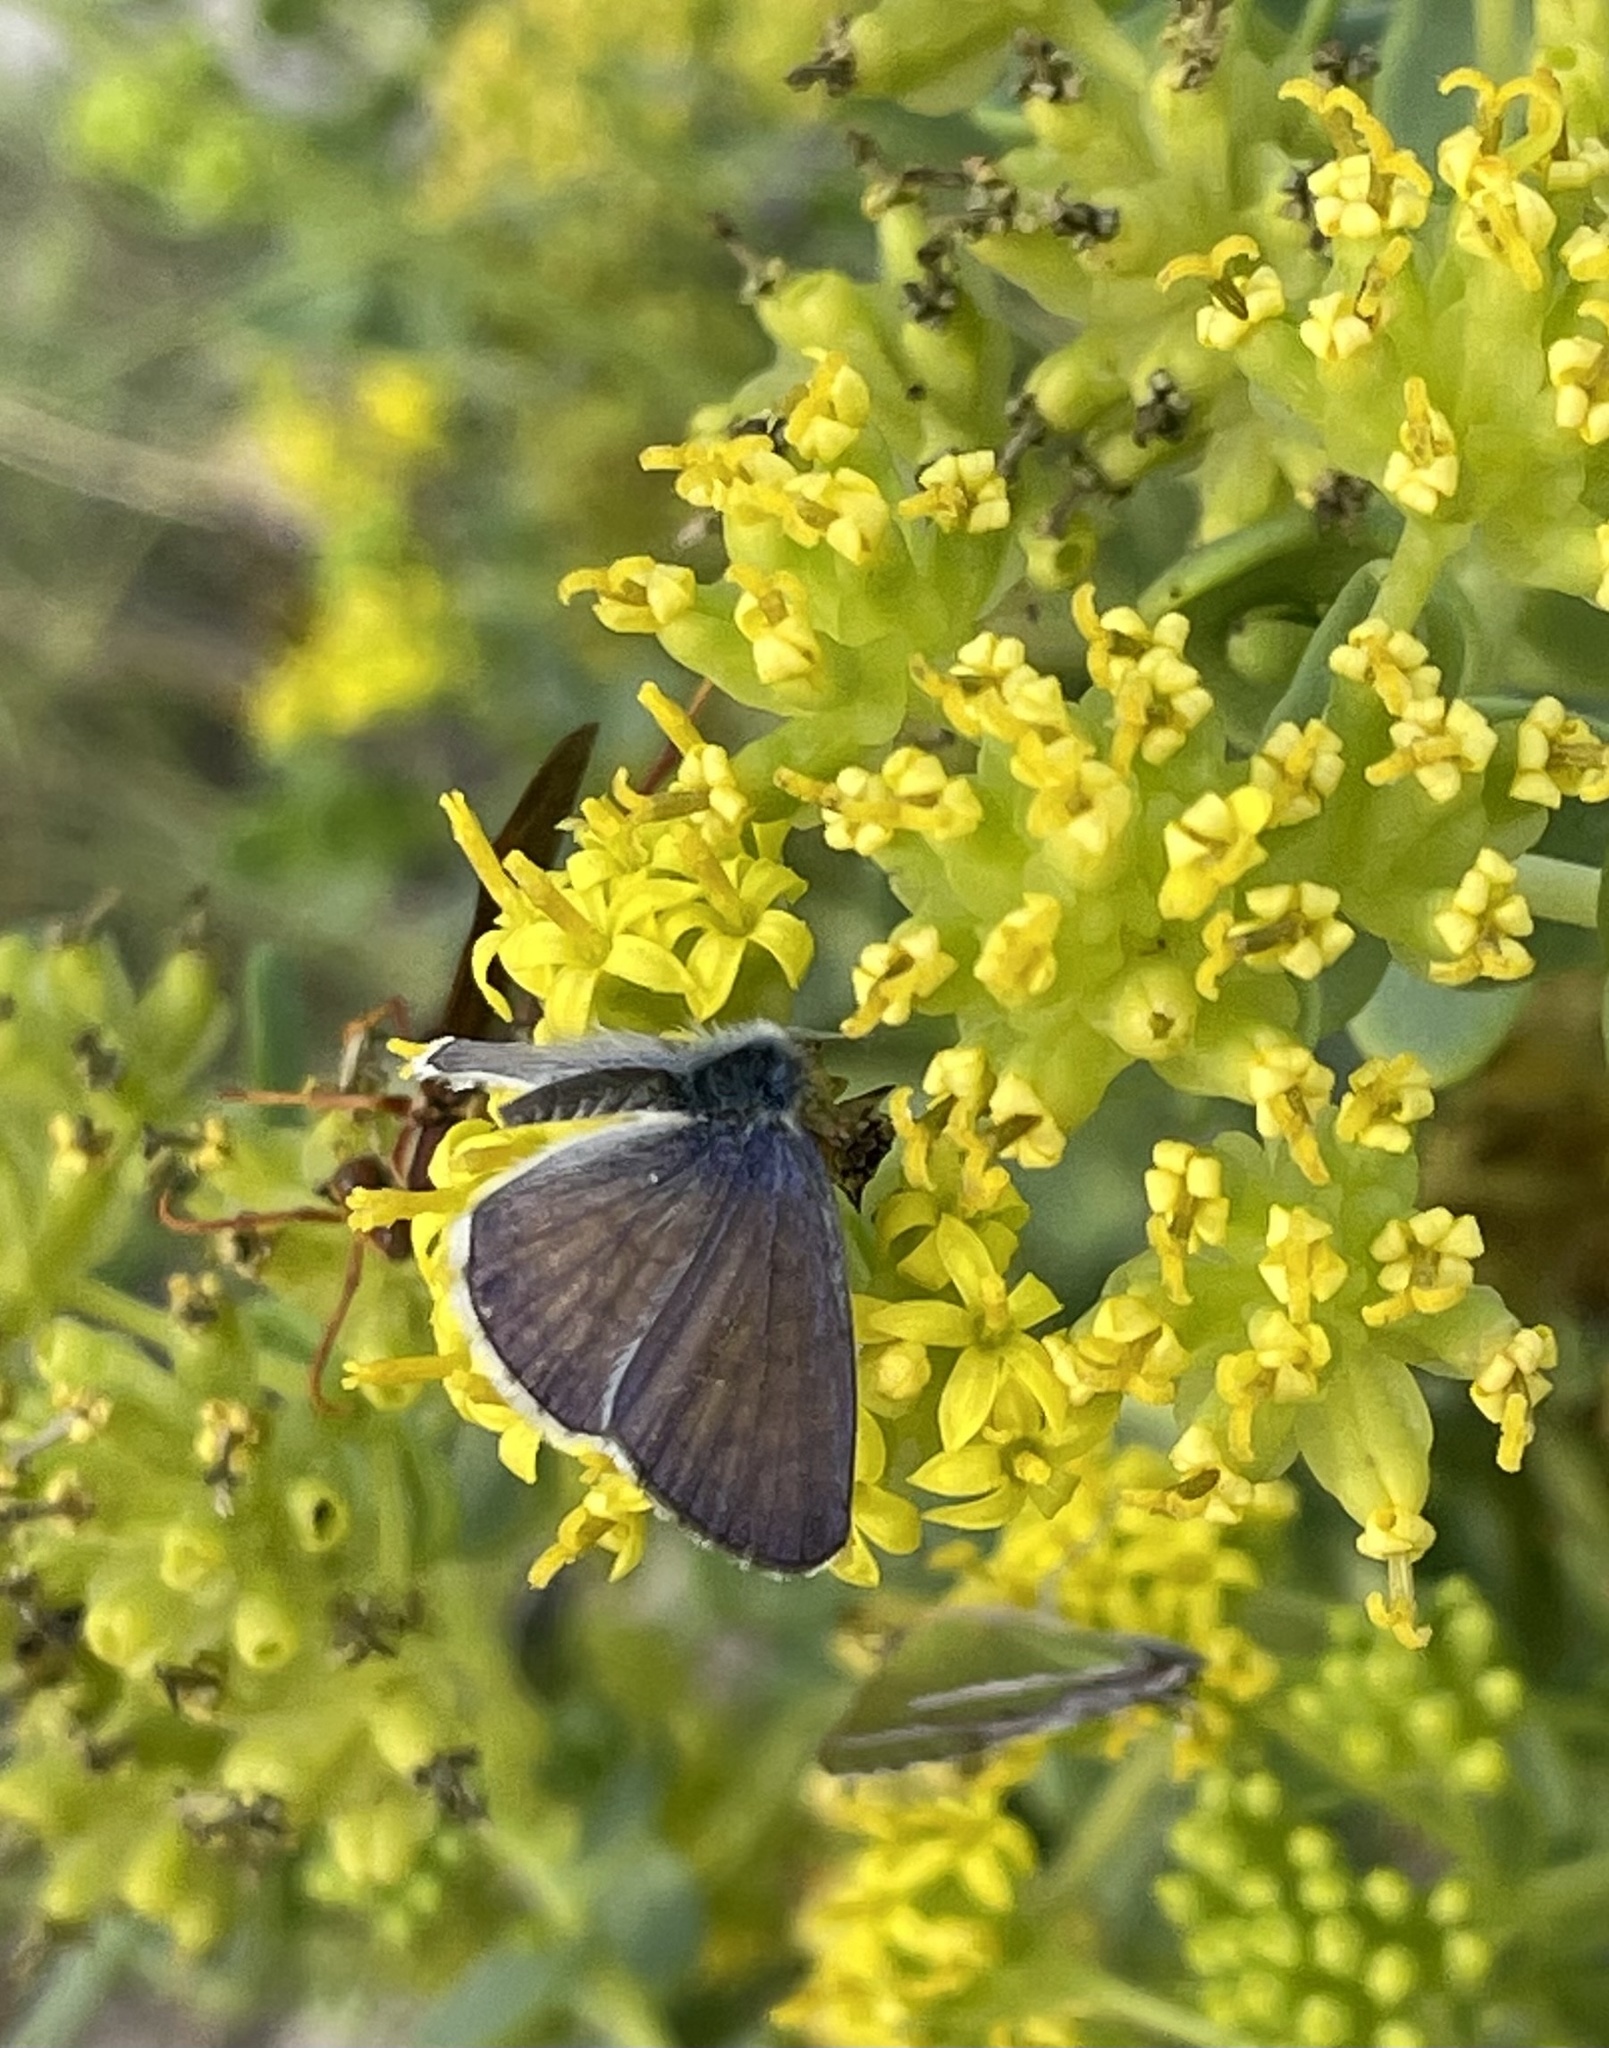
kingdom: Animalia
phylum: Arthropoda
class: Insecta
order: Lepidoptera
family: Lycaenidae
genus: Leptotes
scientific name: Leptotes marina
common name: Marine blue
